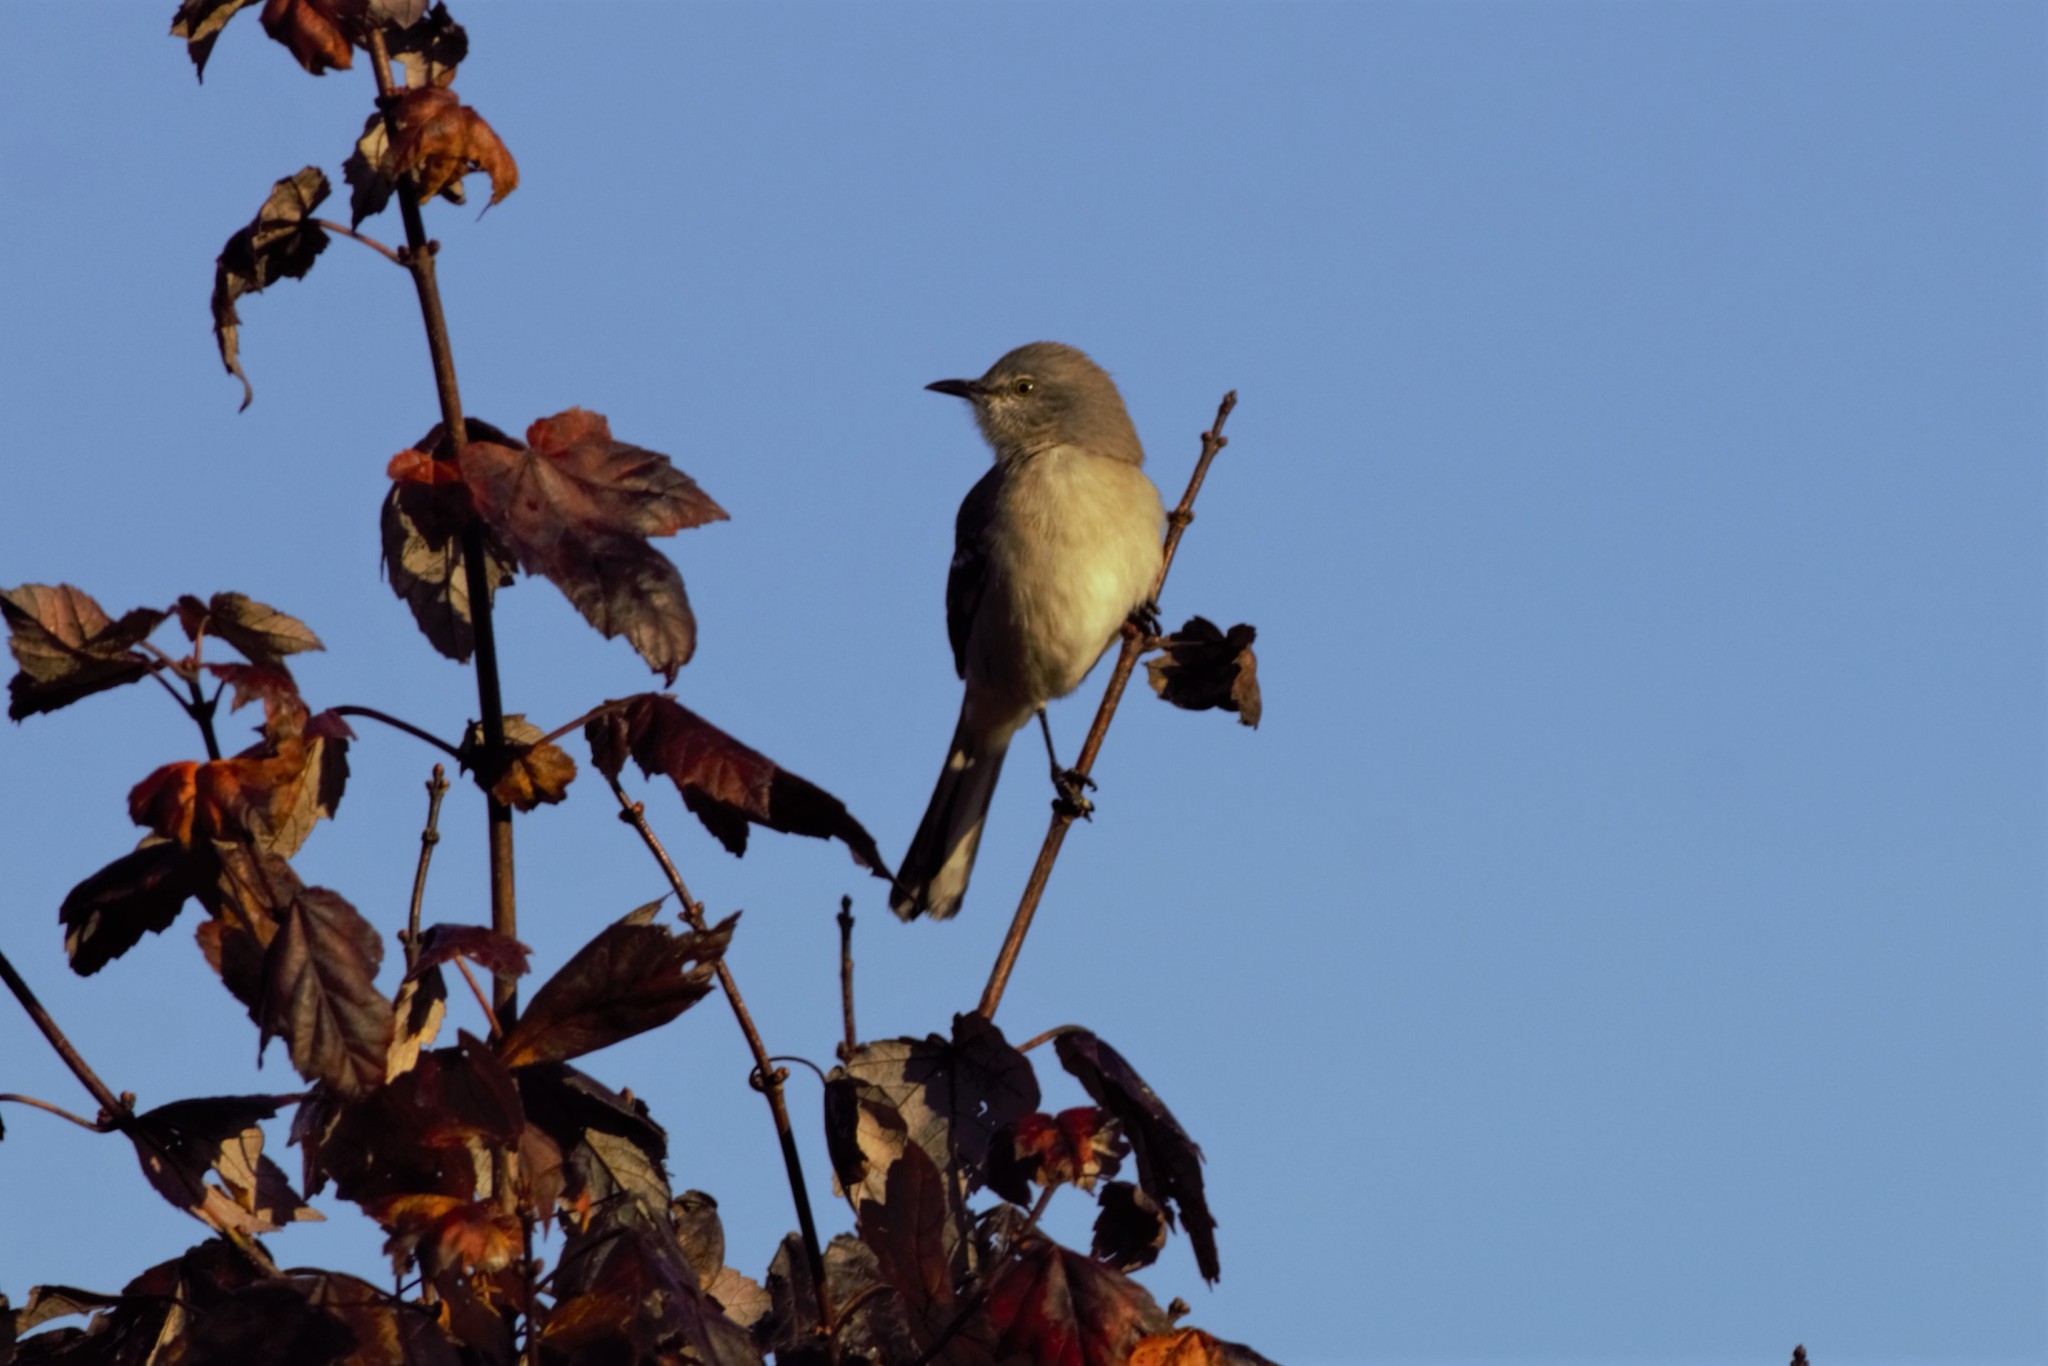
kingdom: Animalia
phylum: Chordata
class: Aves
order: Passeriformes
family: Mimidae
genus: Mimus
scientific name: Mimus polyglottos
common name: Northern mockingbird
